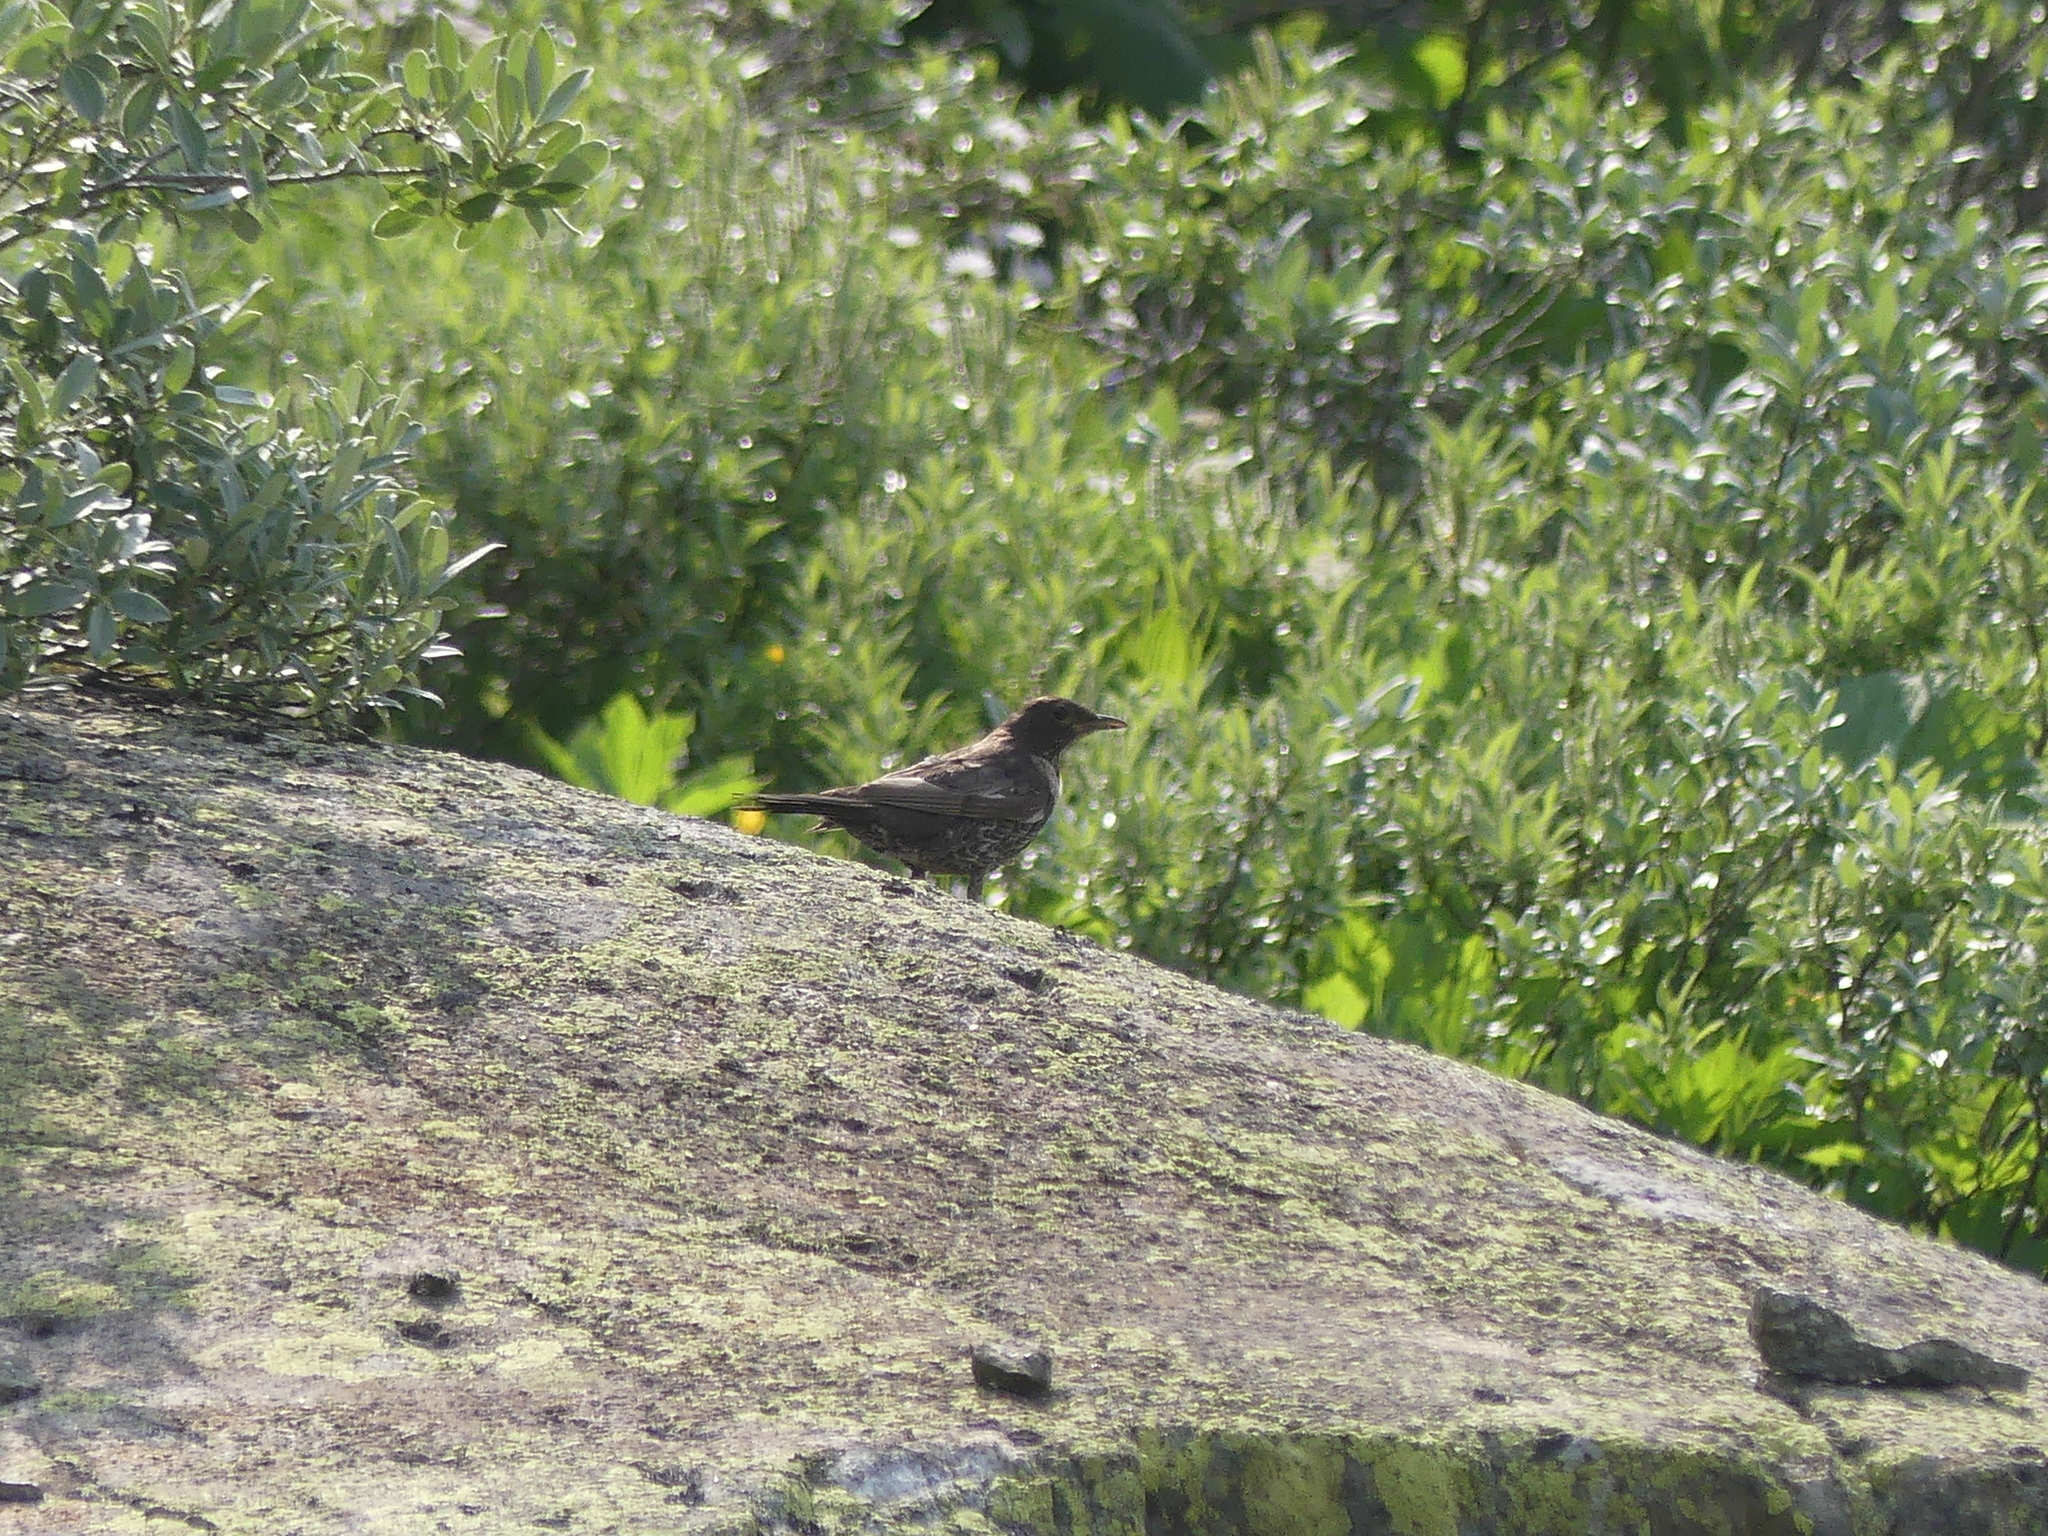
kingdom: Animalia
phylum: Chordata
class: Aves
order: Passeriformes
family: Turdidae
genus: Turdus
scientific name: Turdus torquatus
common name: Ring ouzel
